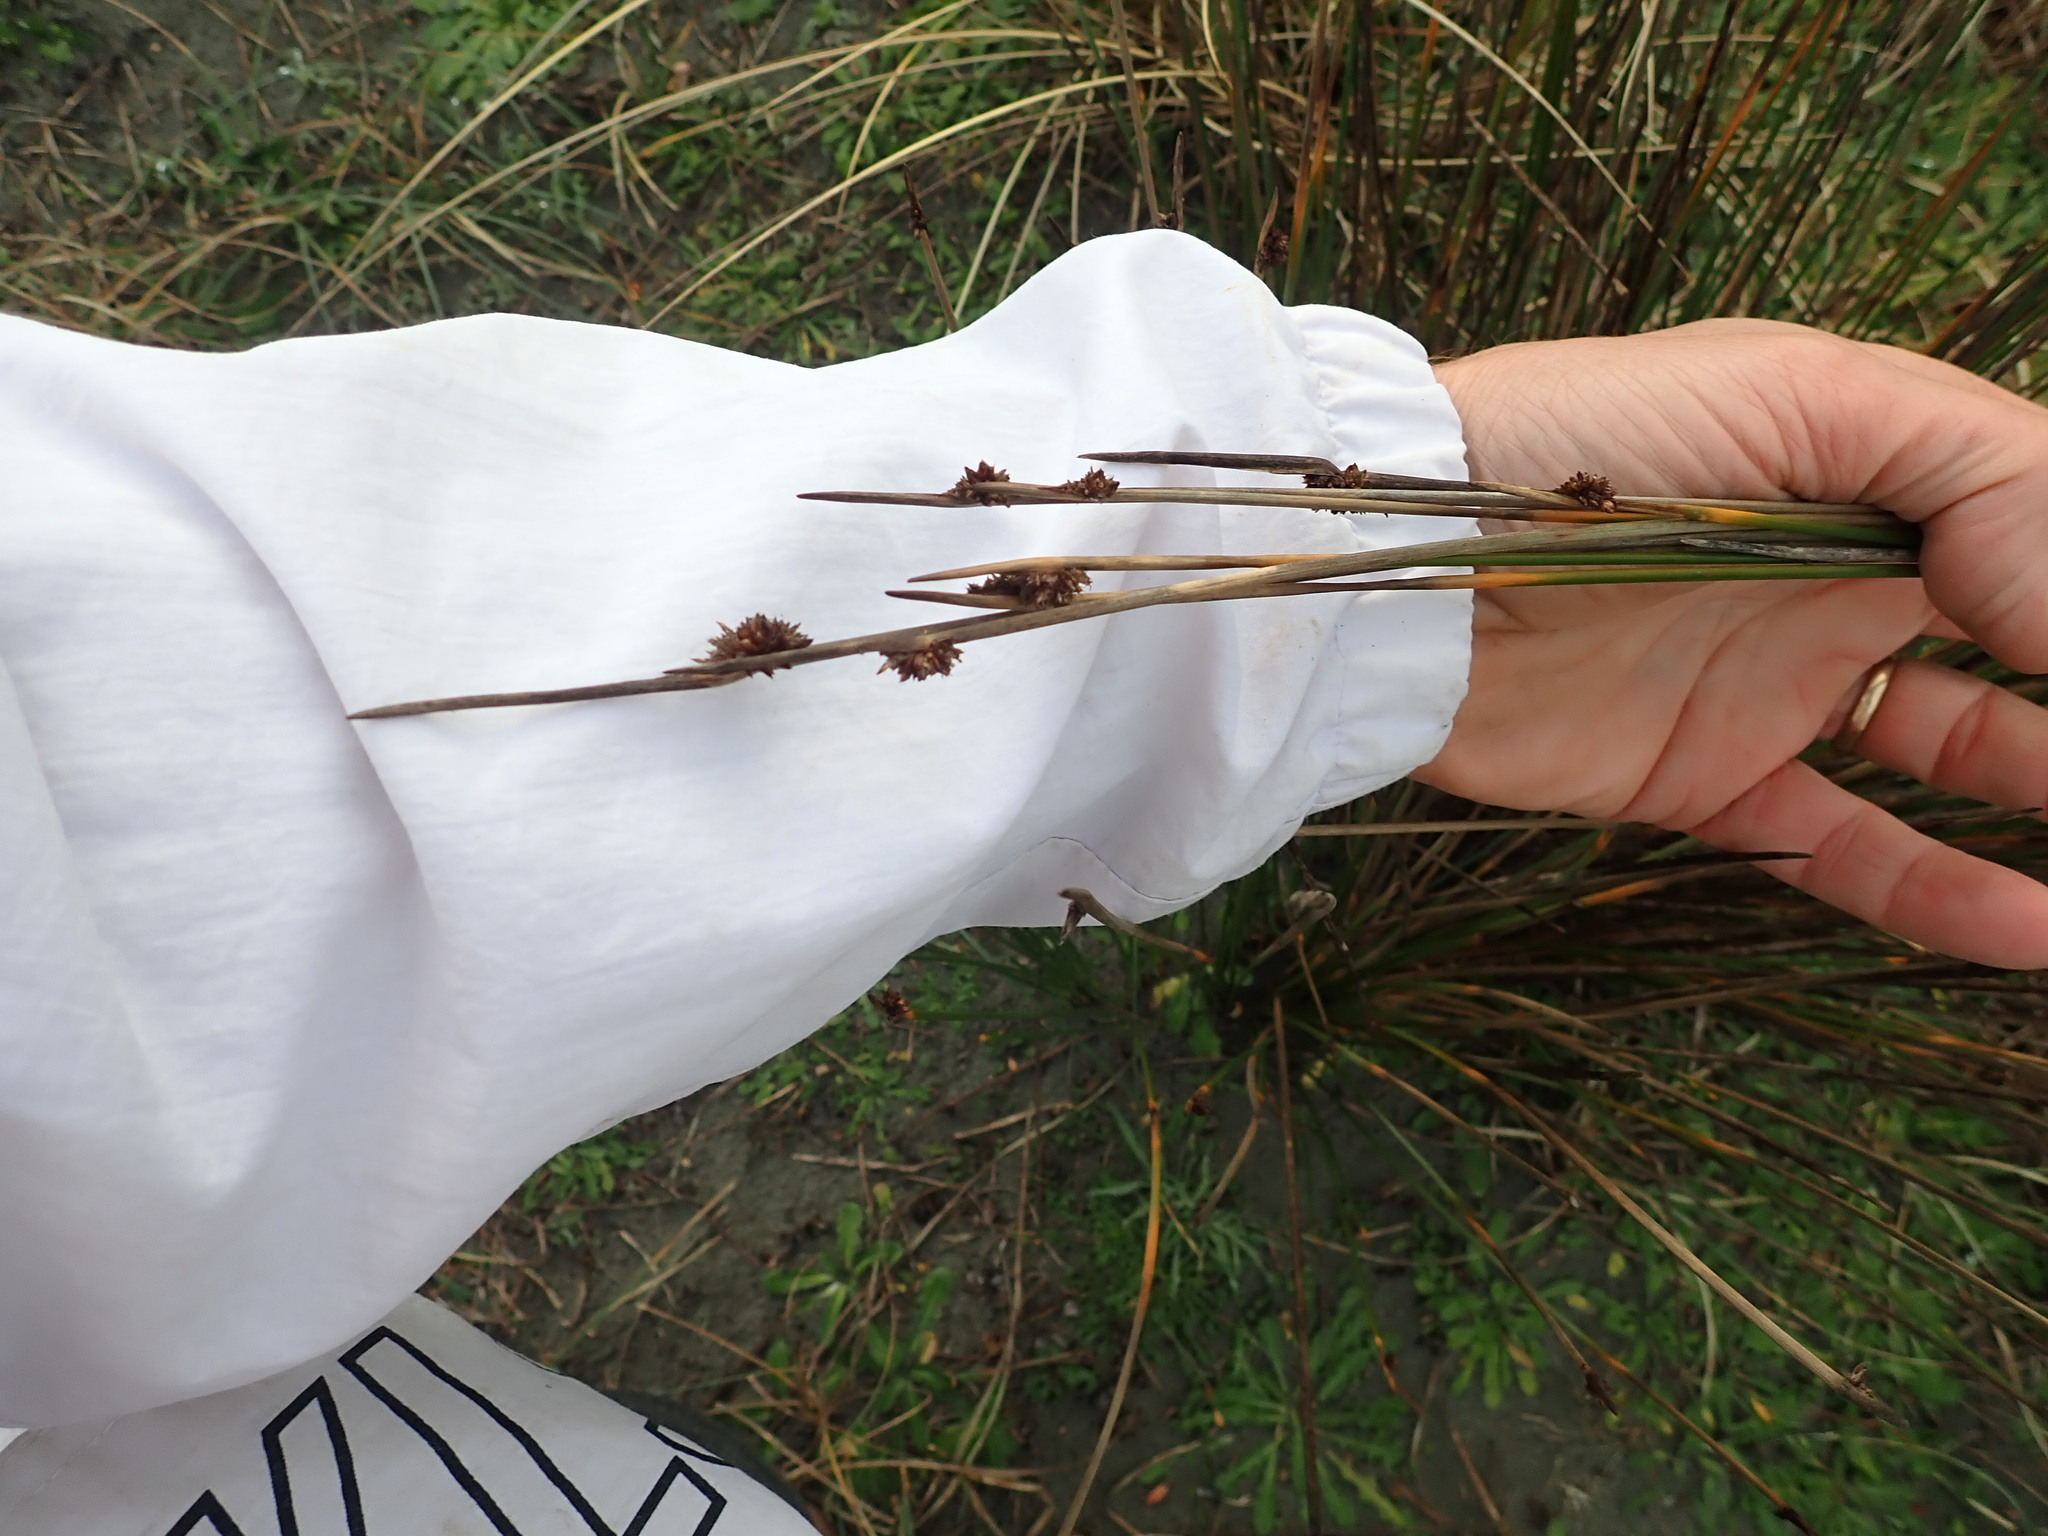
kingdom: Plantae
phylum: Tracheophyta
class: Liliopsida
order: Poales
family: Cyperaceae
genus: Ficinia
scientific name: Ficinia nodosa
